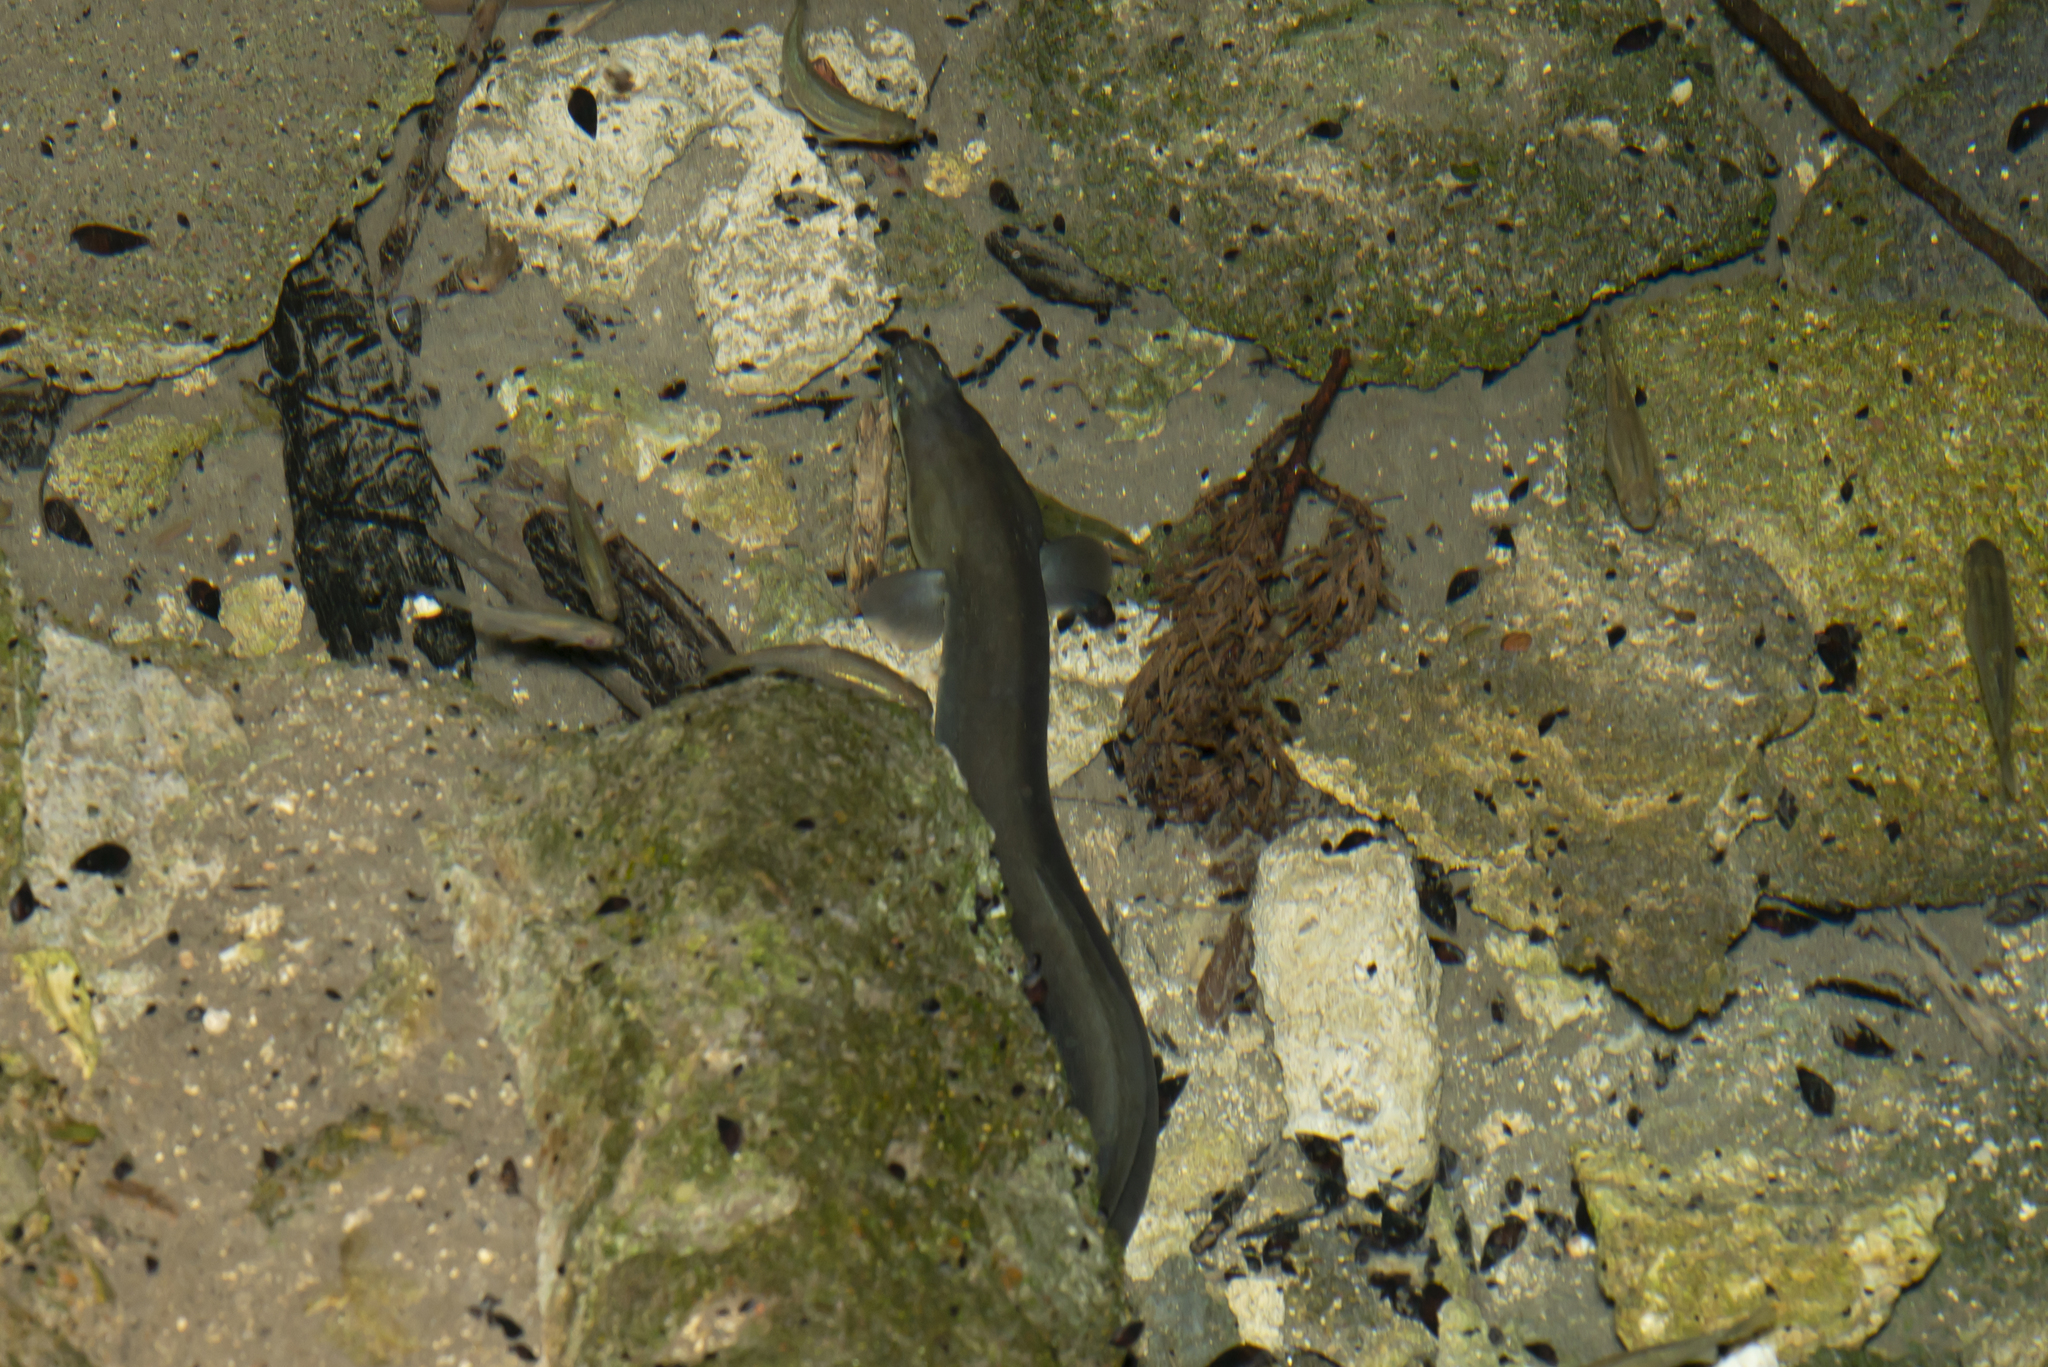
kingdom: Animalia
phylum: Chordata
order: Anguilliformes
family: Anguillidae
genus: Anguilla
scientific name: Anguilla anguilla
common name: European eel
